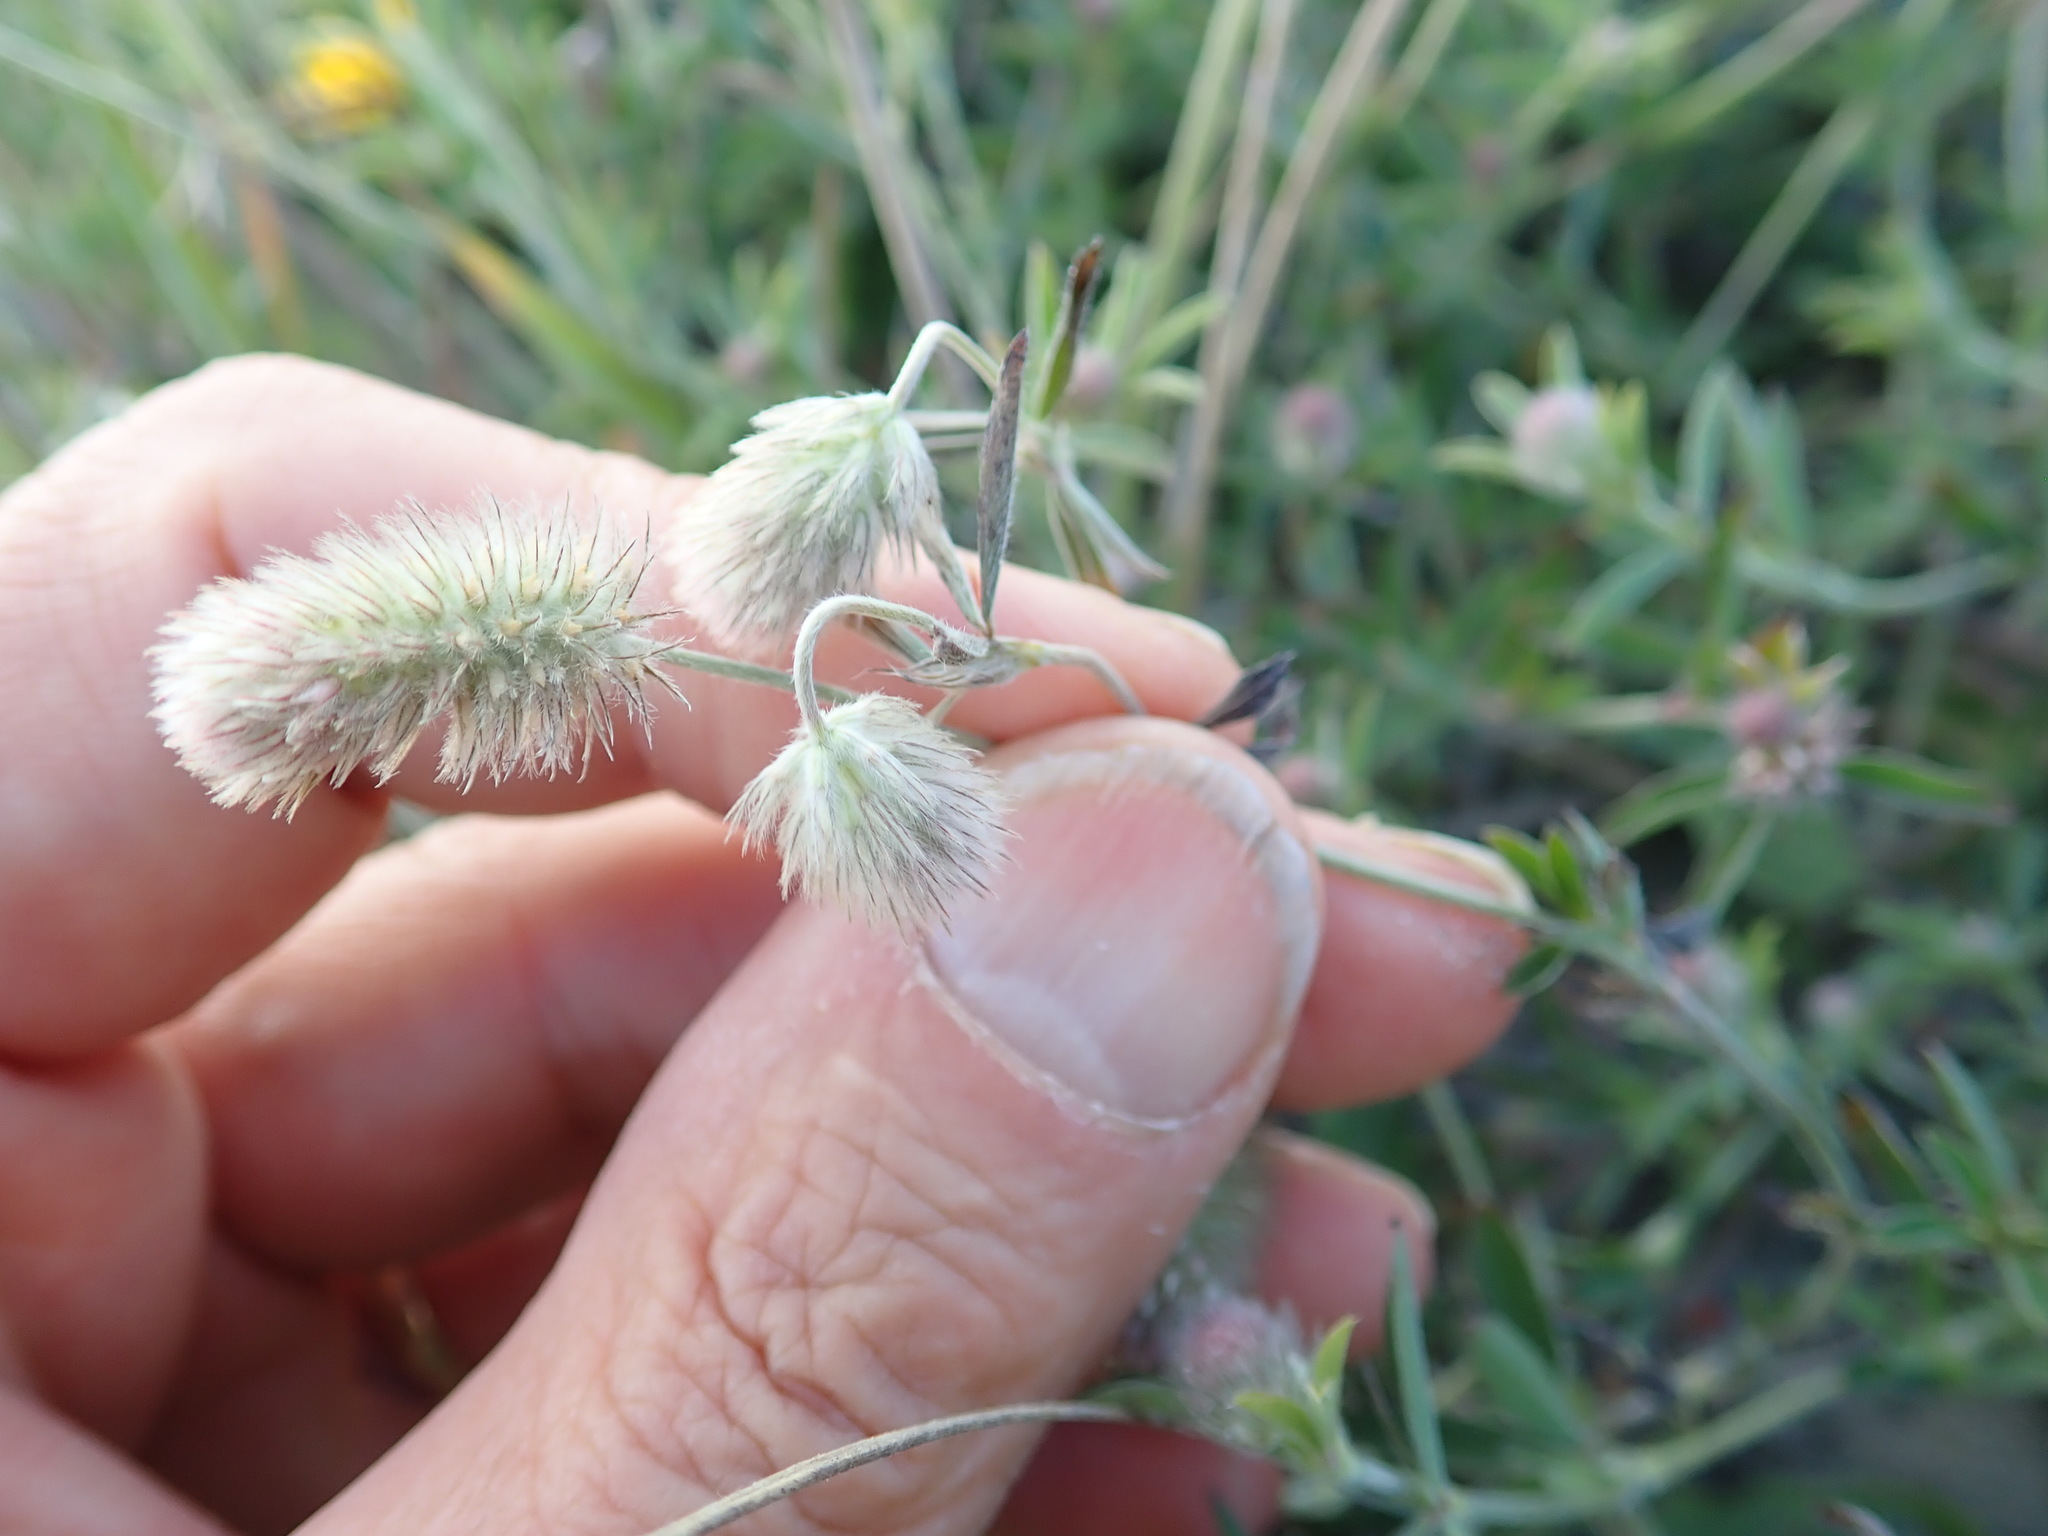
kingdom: Plantae
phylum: Tracheophyta
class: Magnoliopsida
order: Fabales
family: Fabaceae
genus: Trifolium
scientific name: Trifolium arvense
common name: Hare's-foot clover
